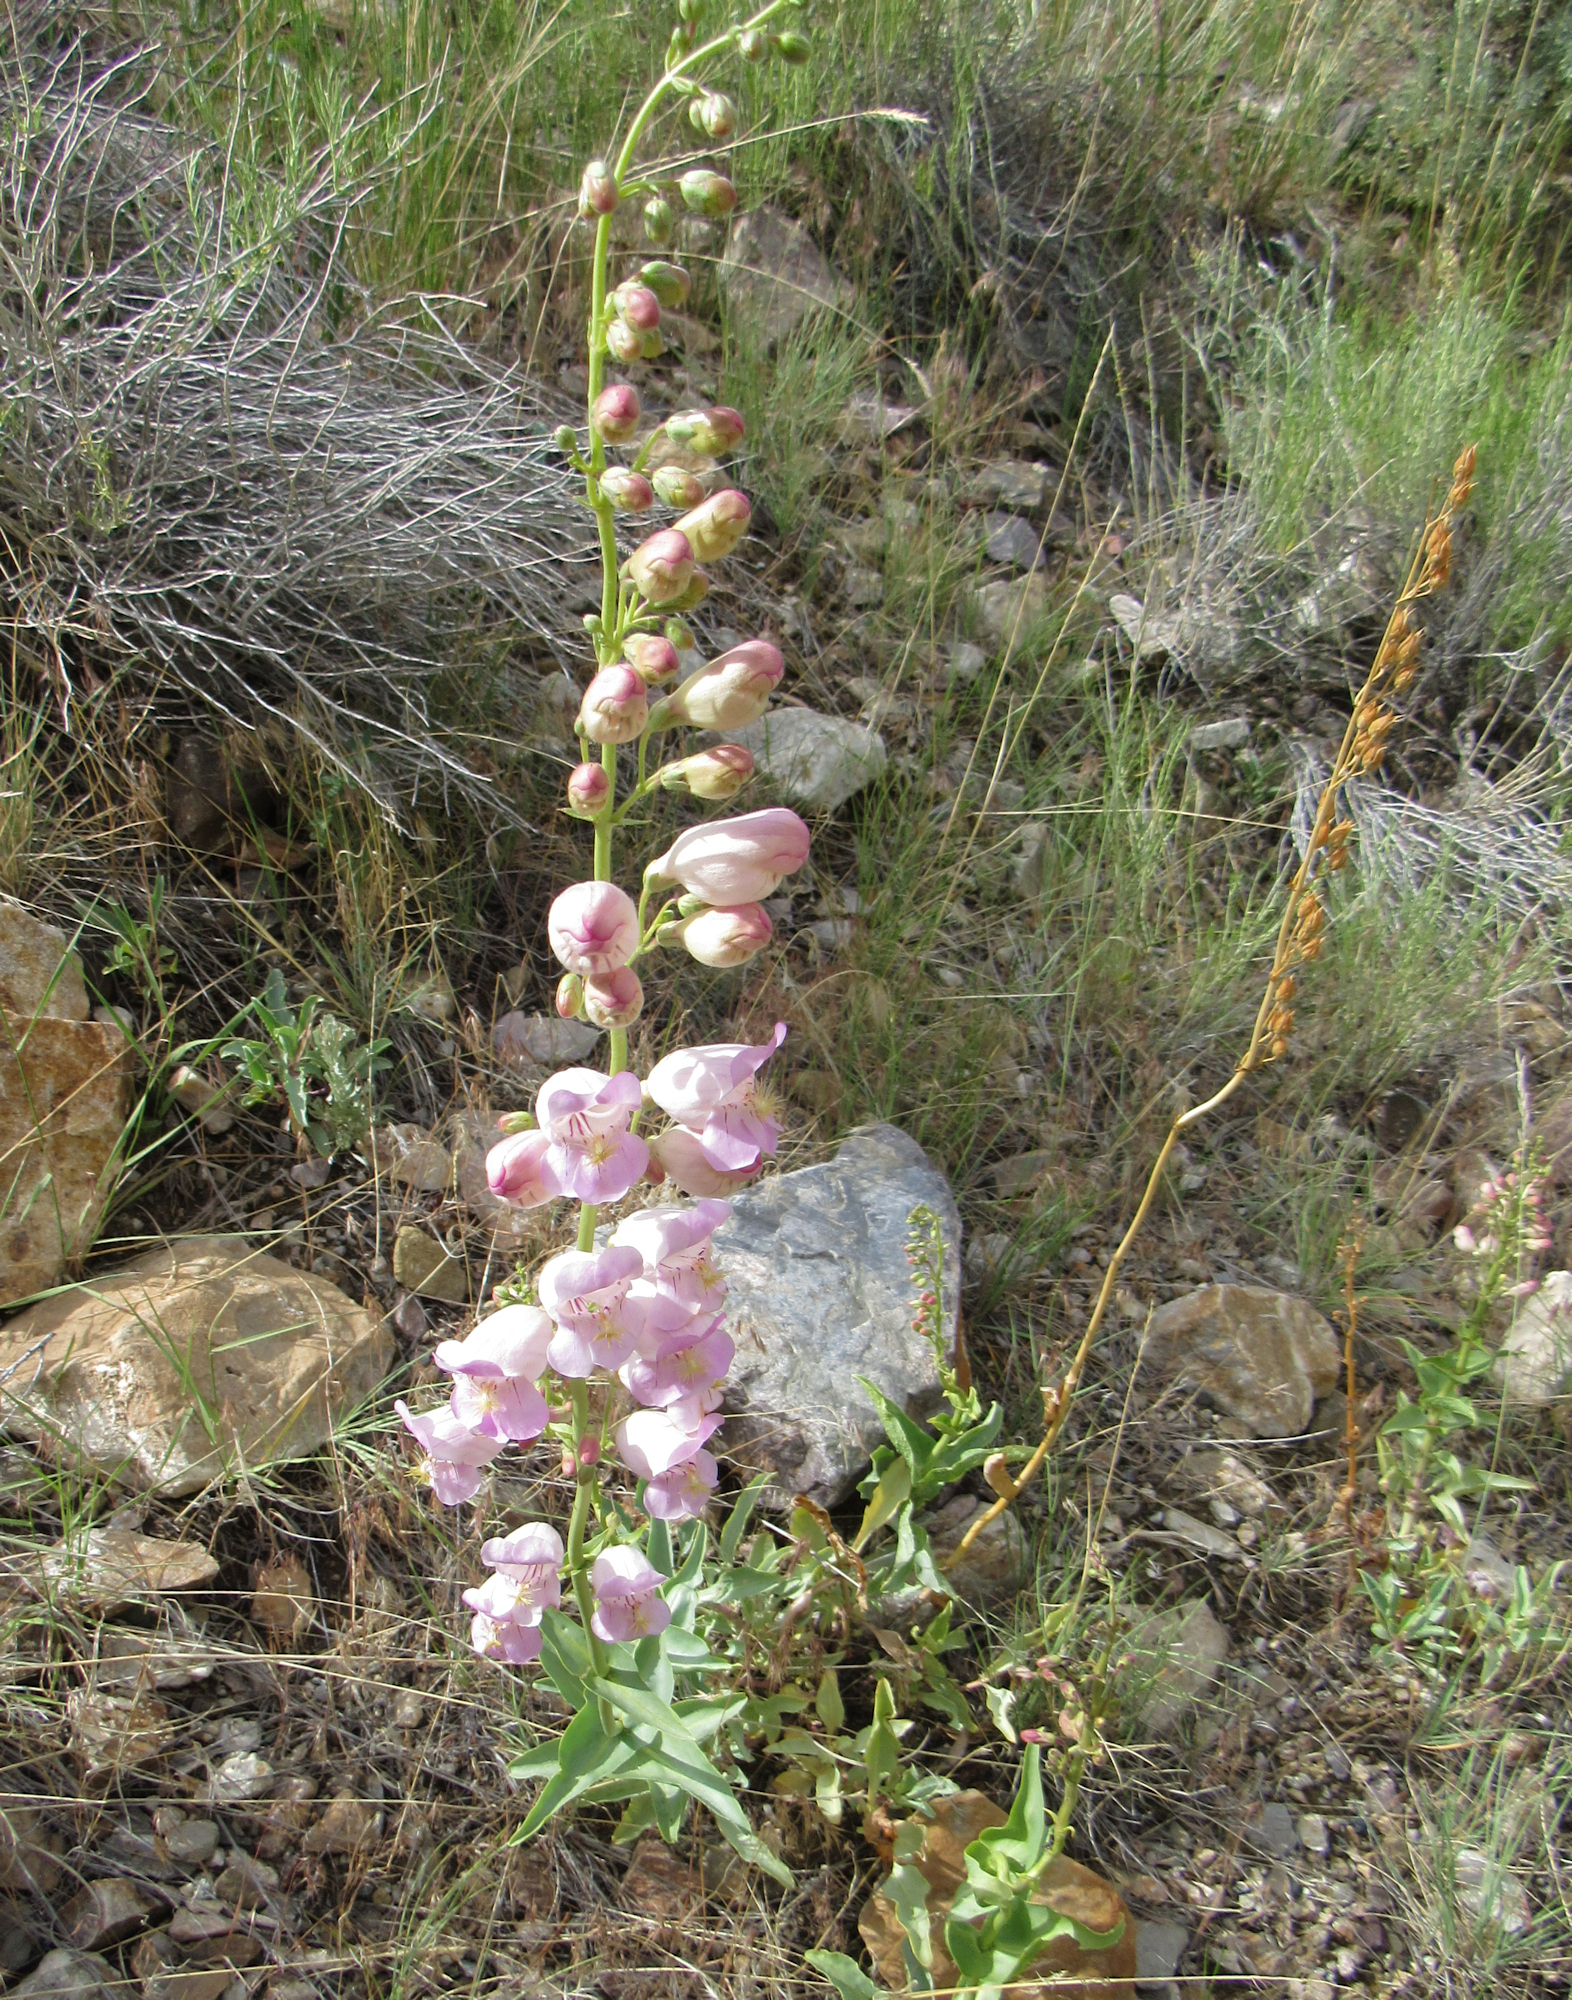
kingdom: Plantae
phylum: Tracheophyta
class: Magnoliopsida
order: Lamiales
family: Plantaginaceae
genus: Penstemon
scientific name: Penstemon palmeri
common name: Palmer penstemon
